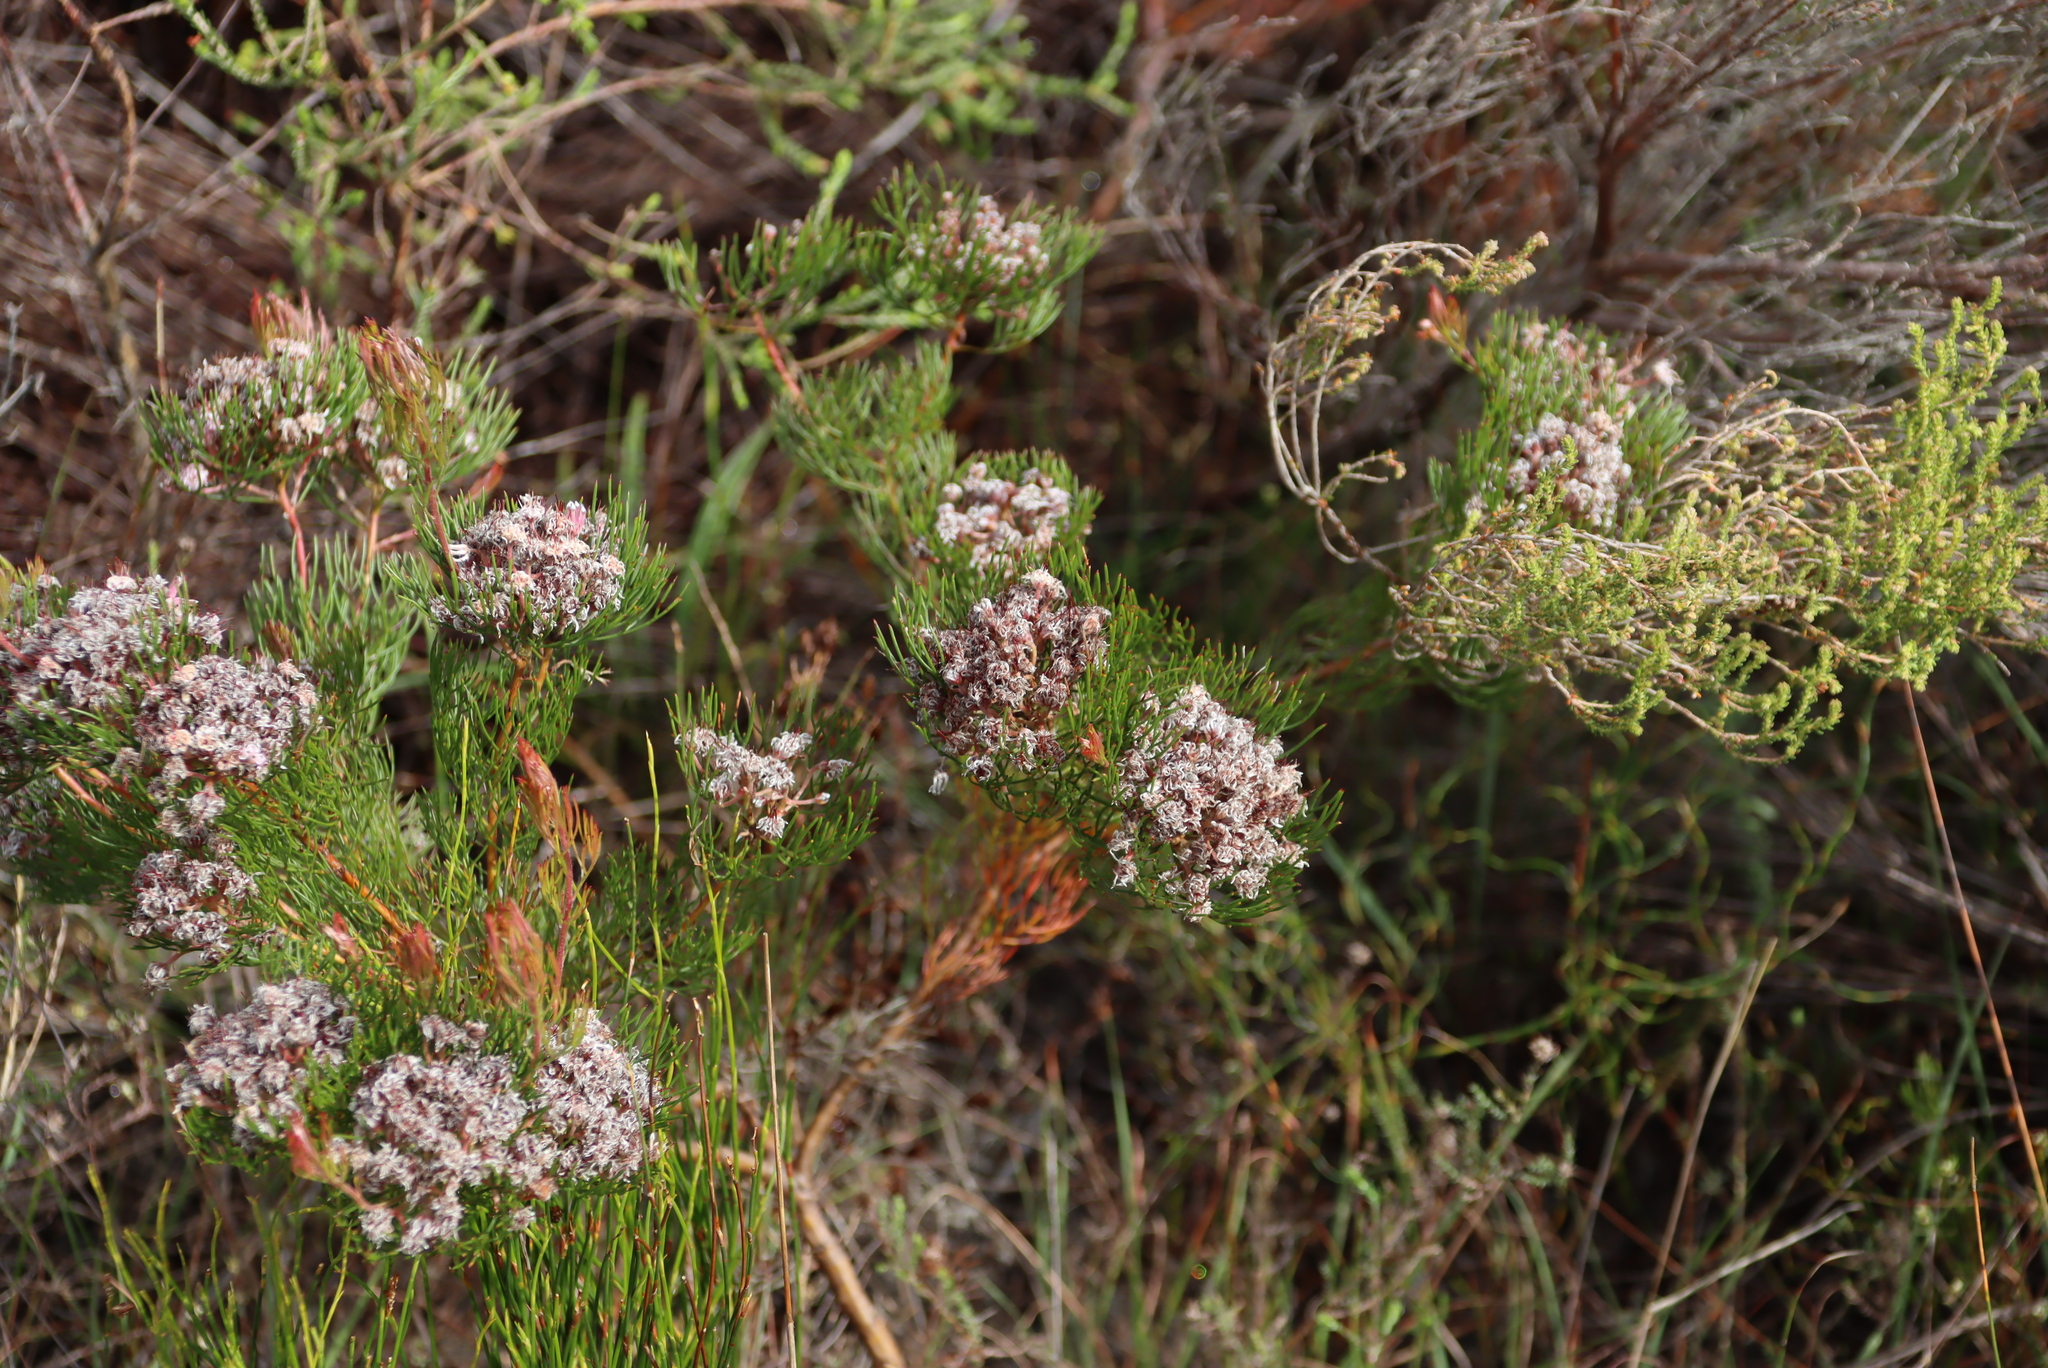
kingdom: Plantae
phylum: Tracheophyta
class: Magnoliopsida
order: Proteales
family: Proteaceae
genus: Serruria
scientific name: Serruria fasciflora
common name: Common pin spiderhead
